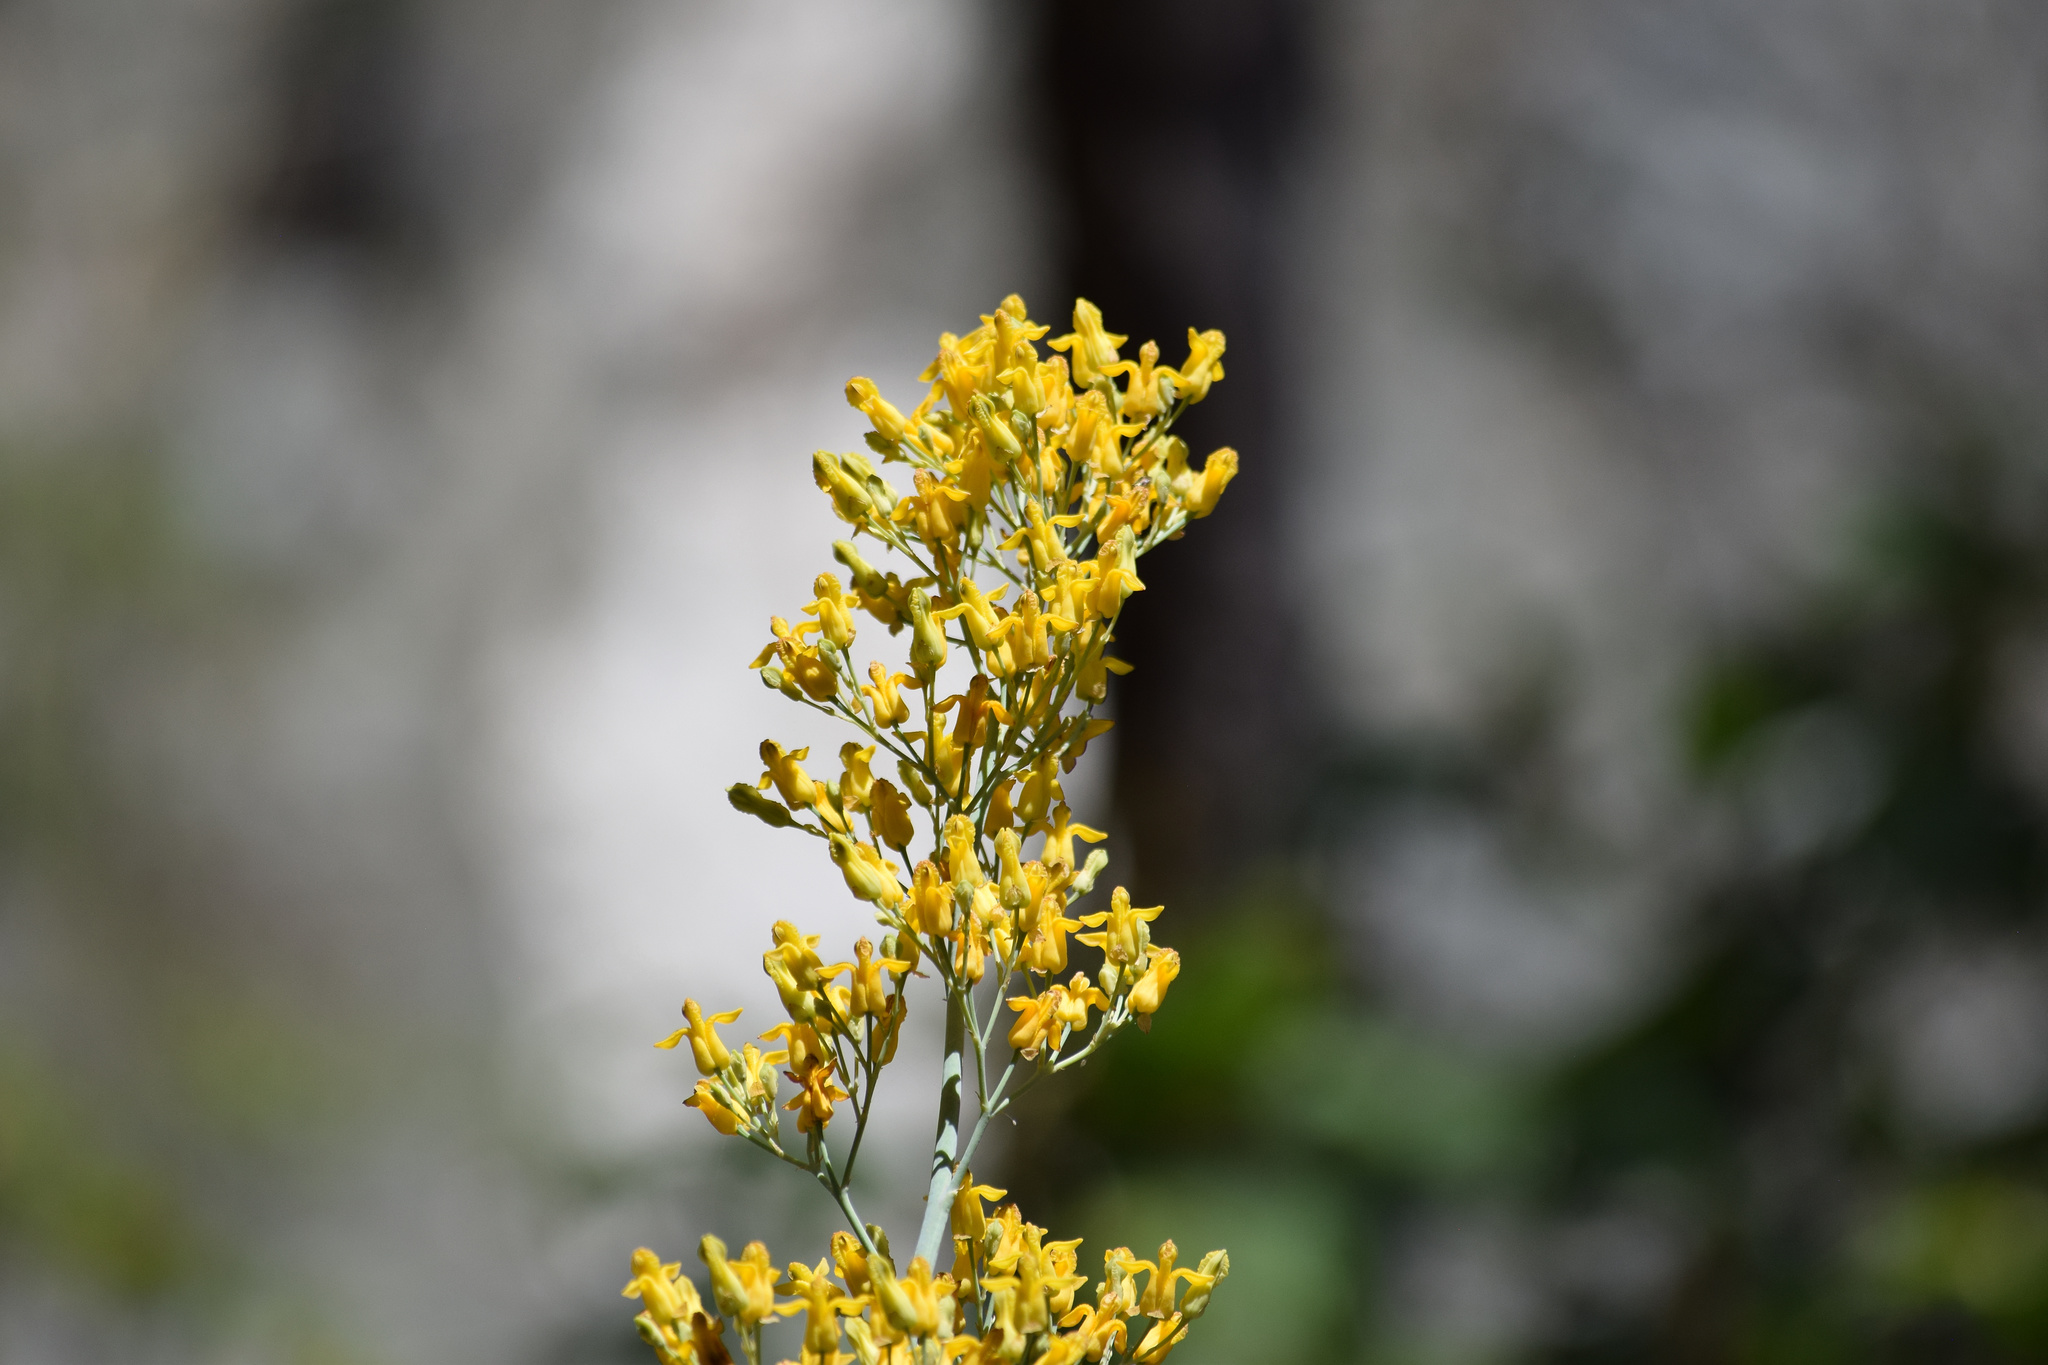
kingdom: Plantae
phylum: Tracheophyta
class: Magnoliopsida
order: Ranunculales
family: Papaveraceae
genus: Ehrendorferia
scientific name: Ehrendorferia chrysantha
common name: Golden eardrops
